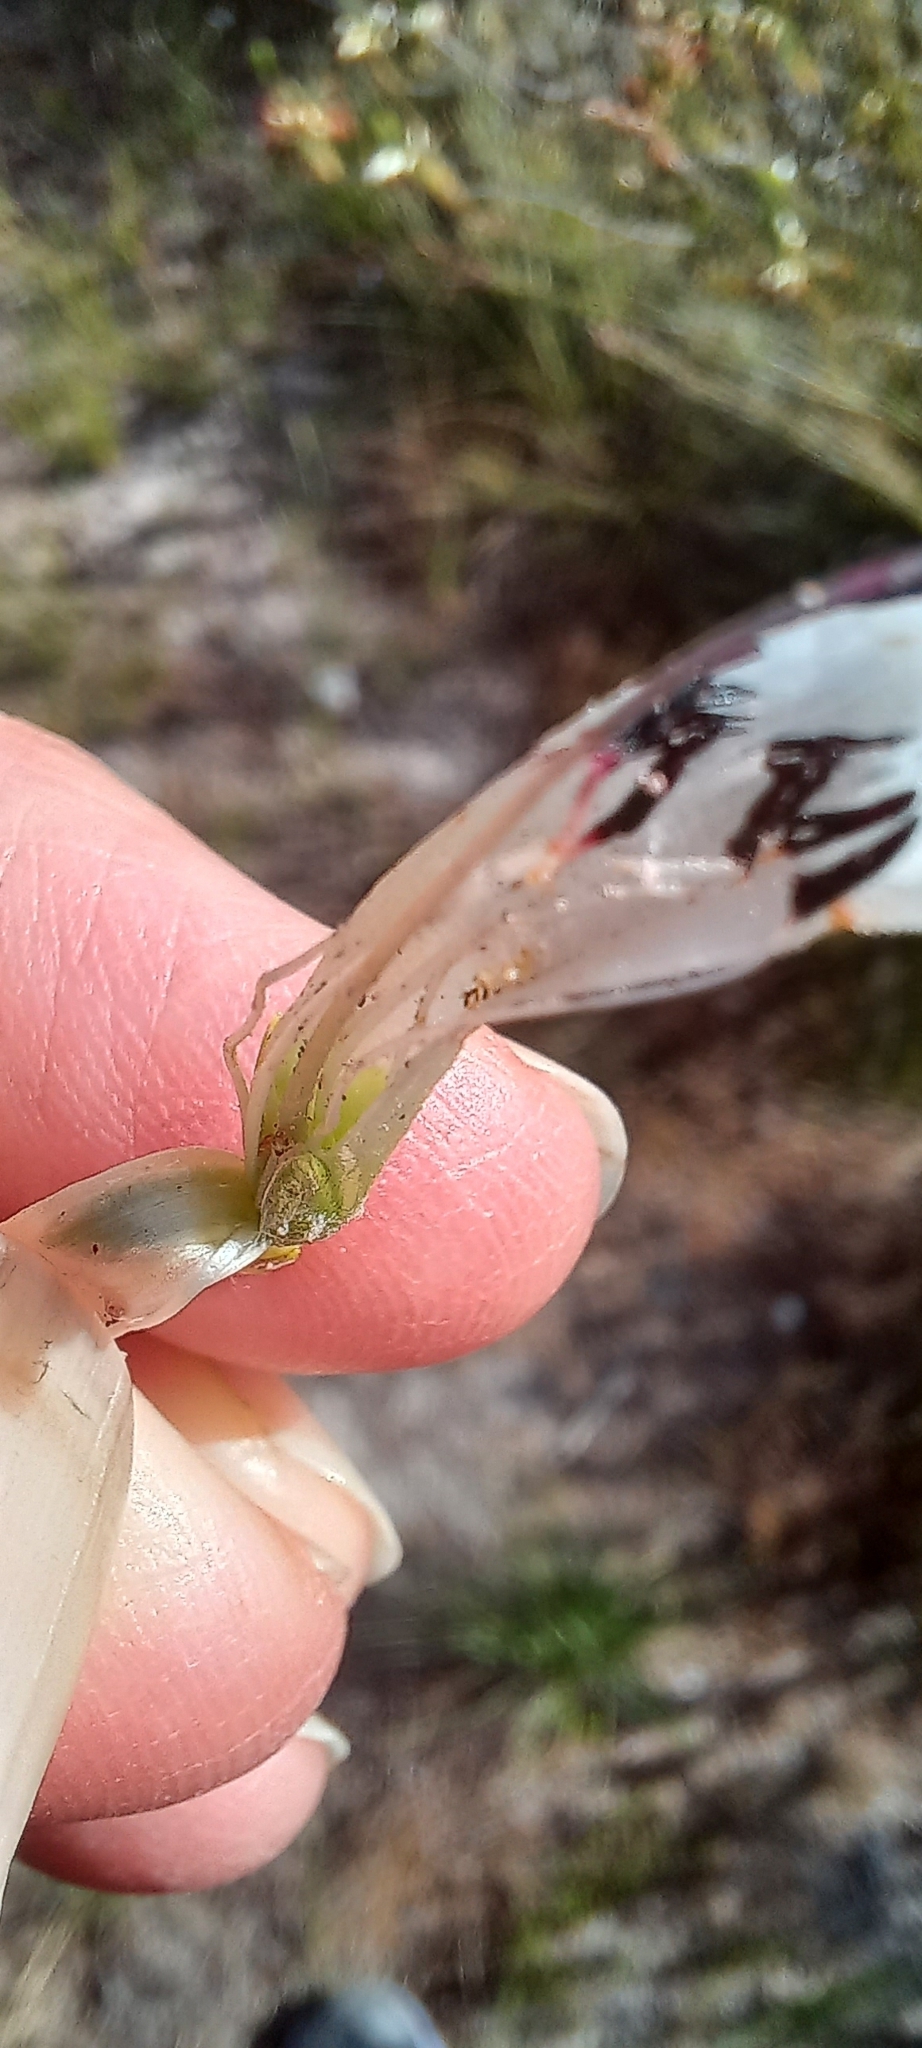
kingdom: Plantae
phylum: Tracheophyta
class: Magnoliopsida
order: Ericales
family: Ericaceae
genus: Erica
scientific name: Erica thomae
